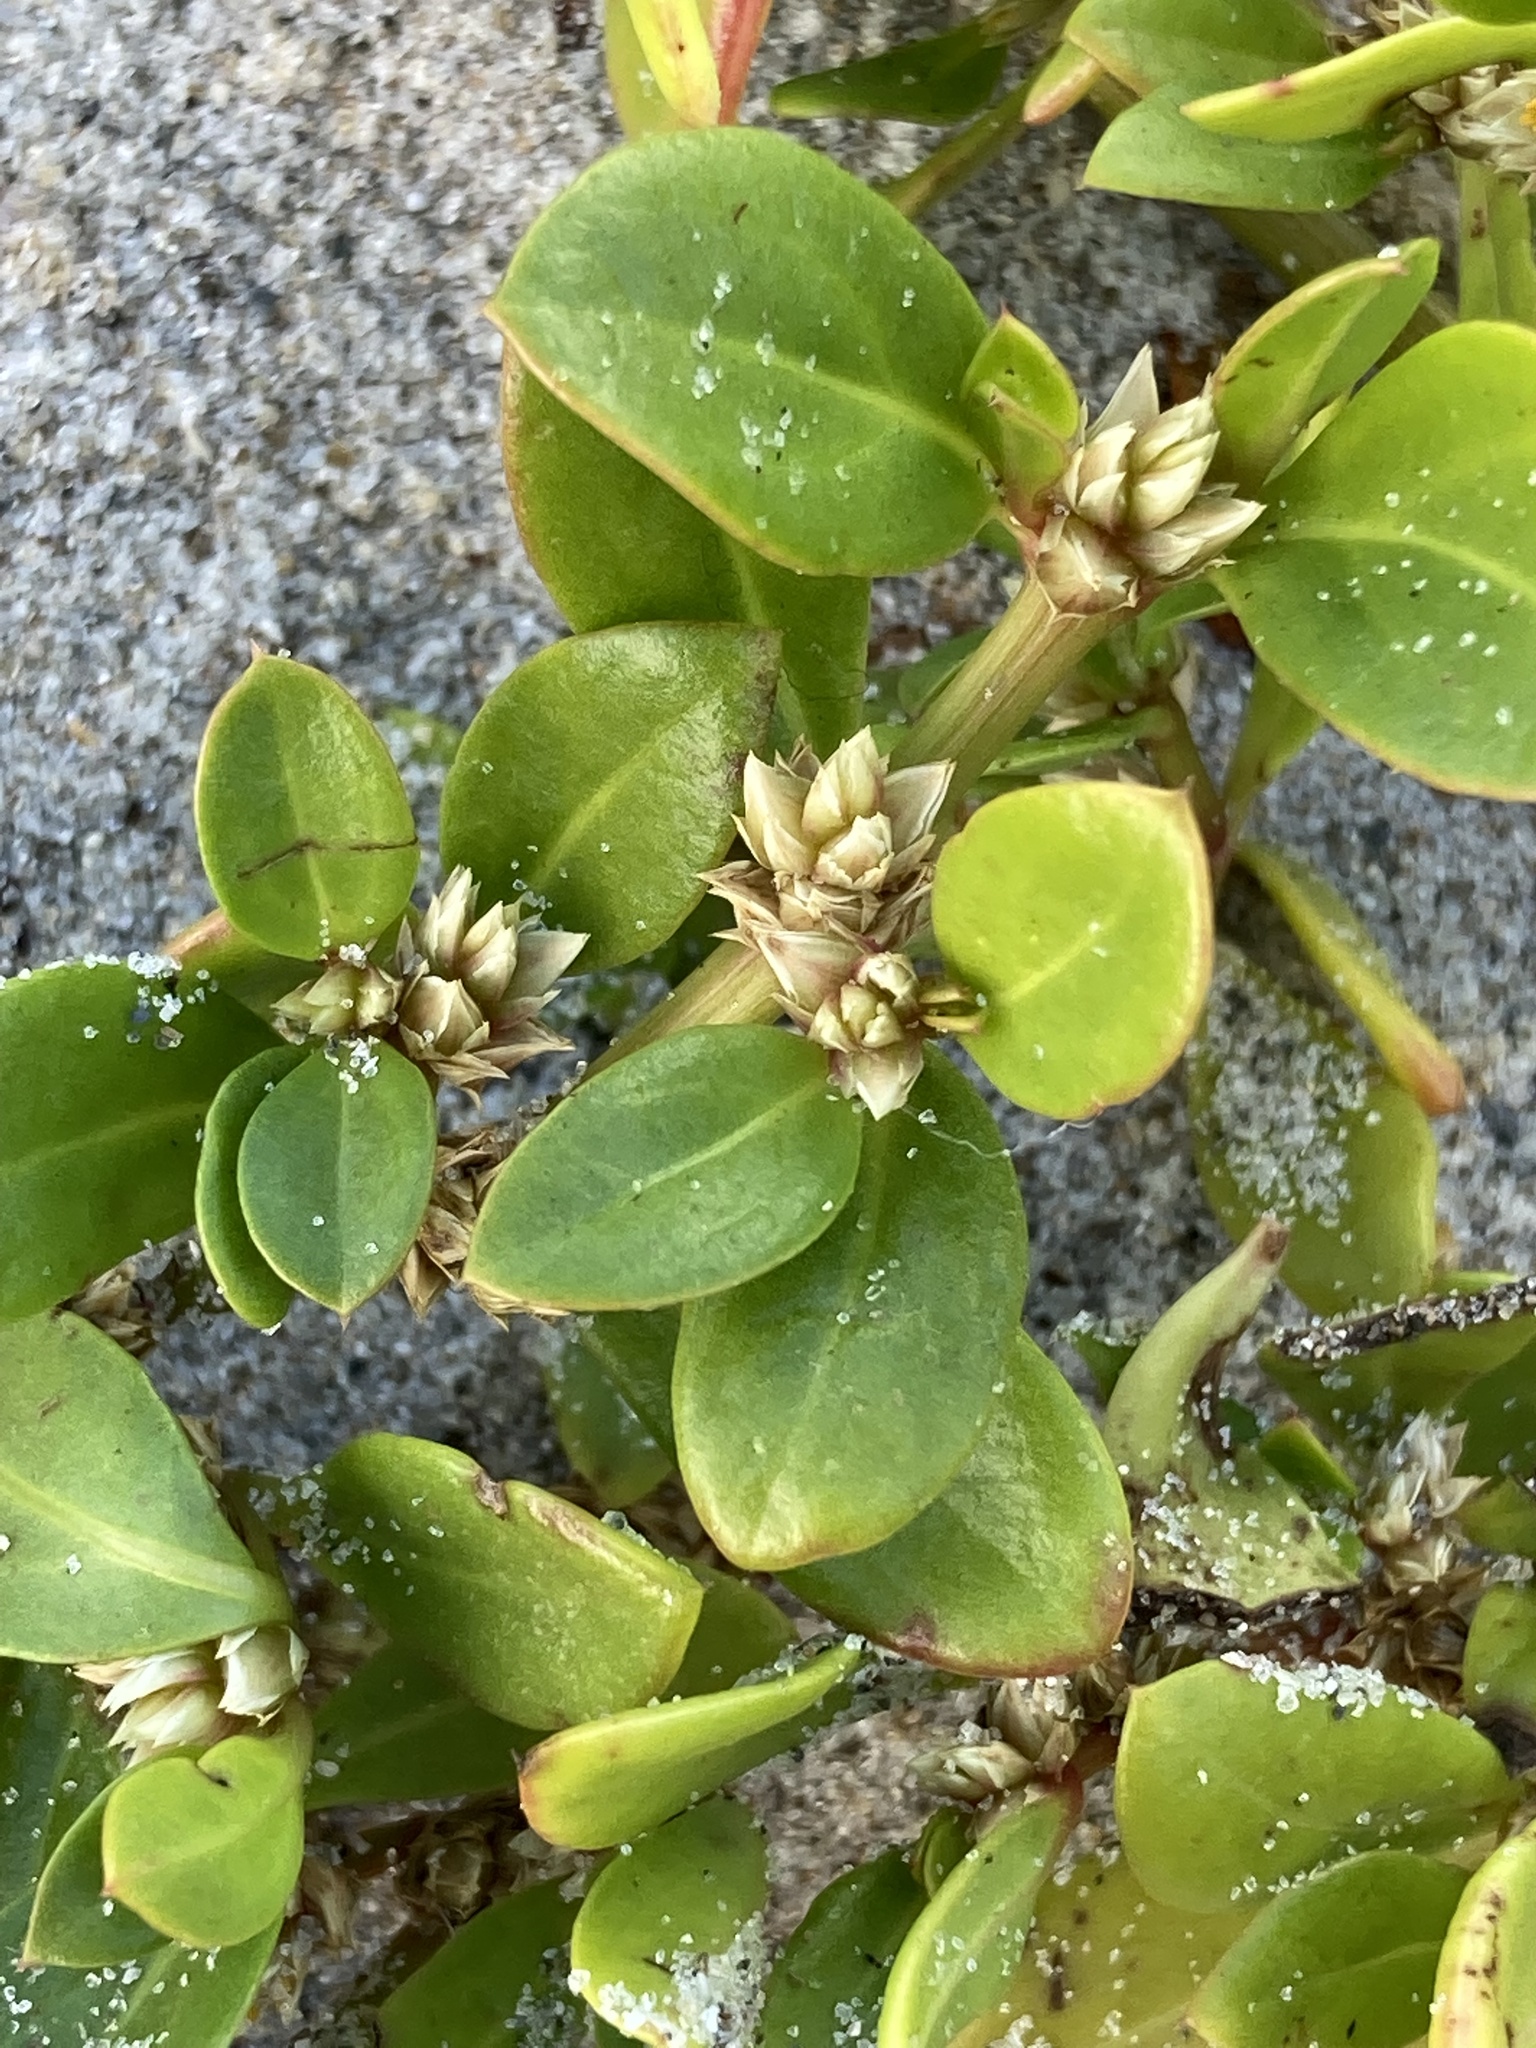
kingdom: Plantae
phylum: Tracheophyta
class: Magnoliopsida
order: Caryophyllales
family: Amaranthaceae
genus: Alternanthera
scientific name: Alternanthera littoralis
